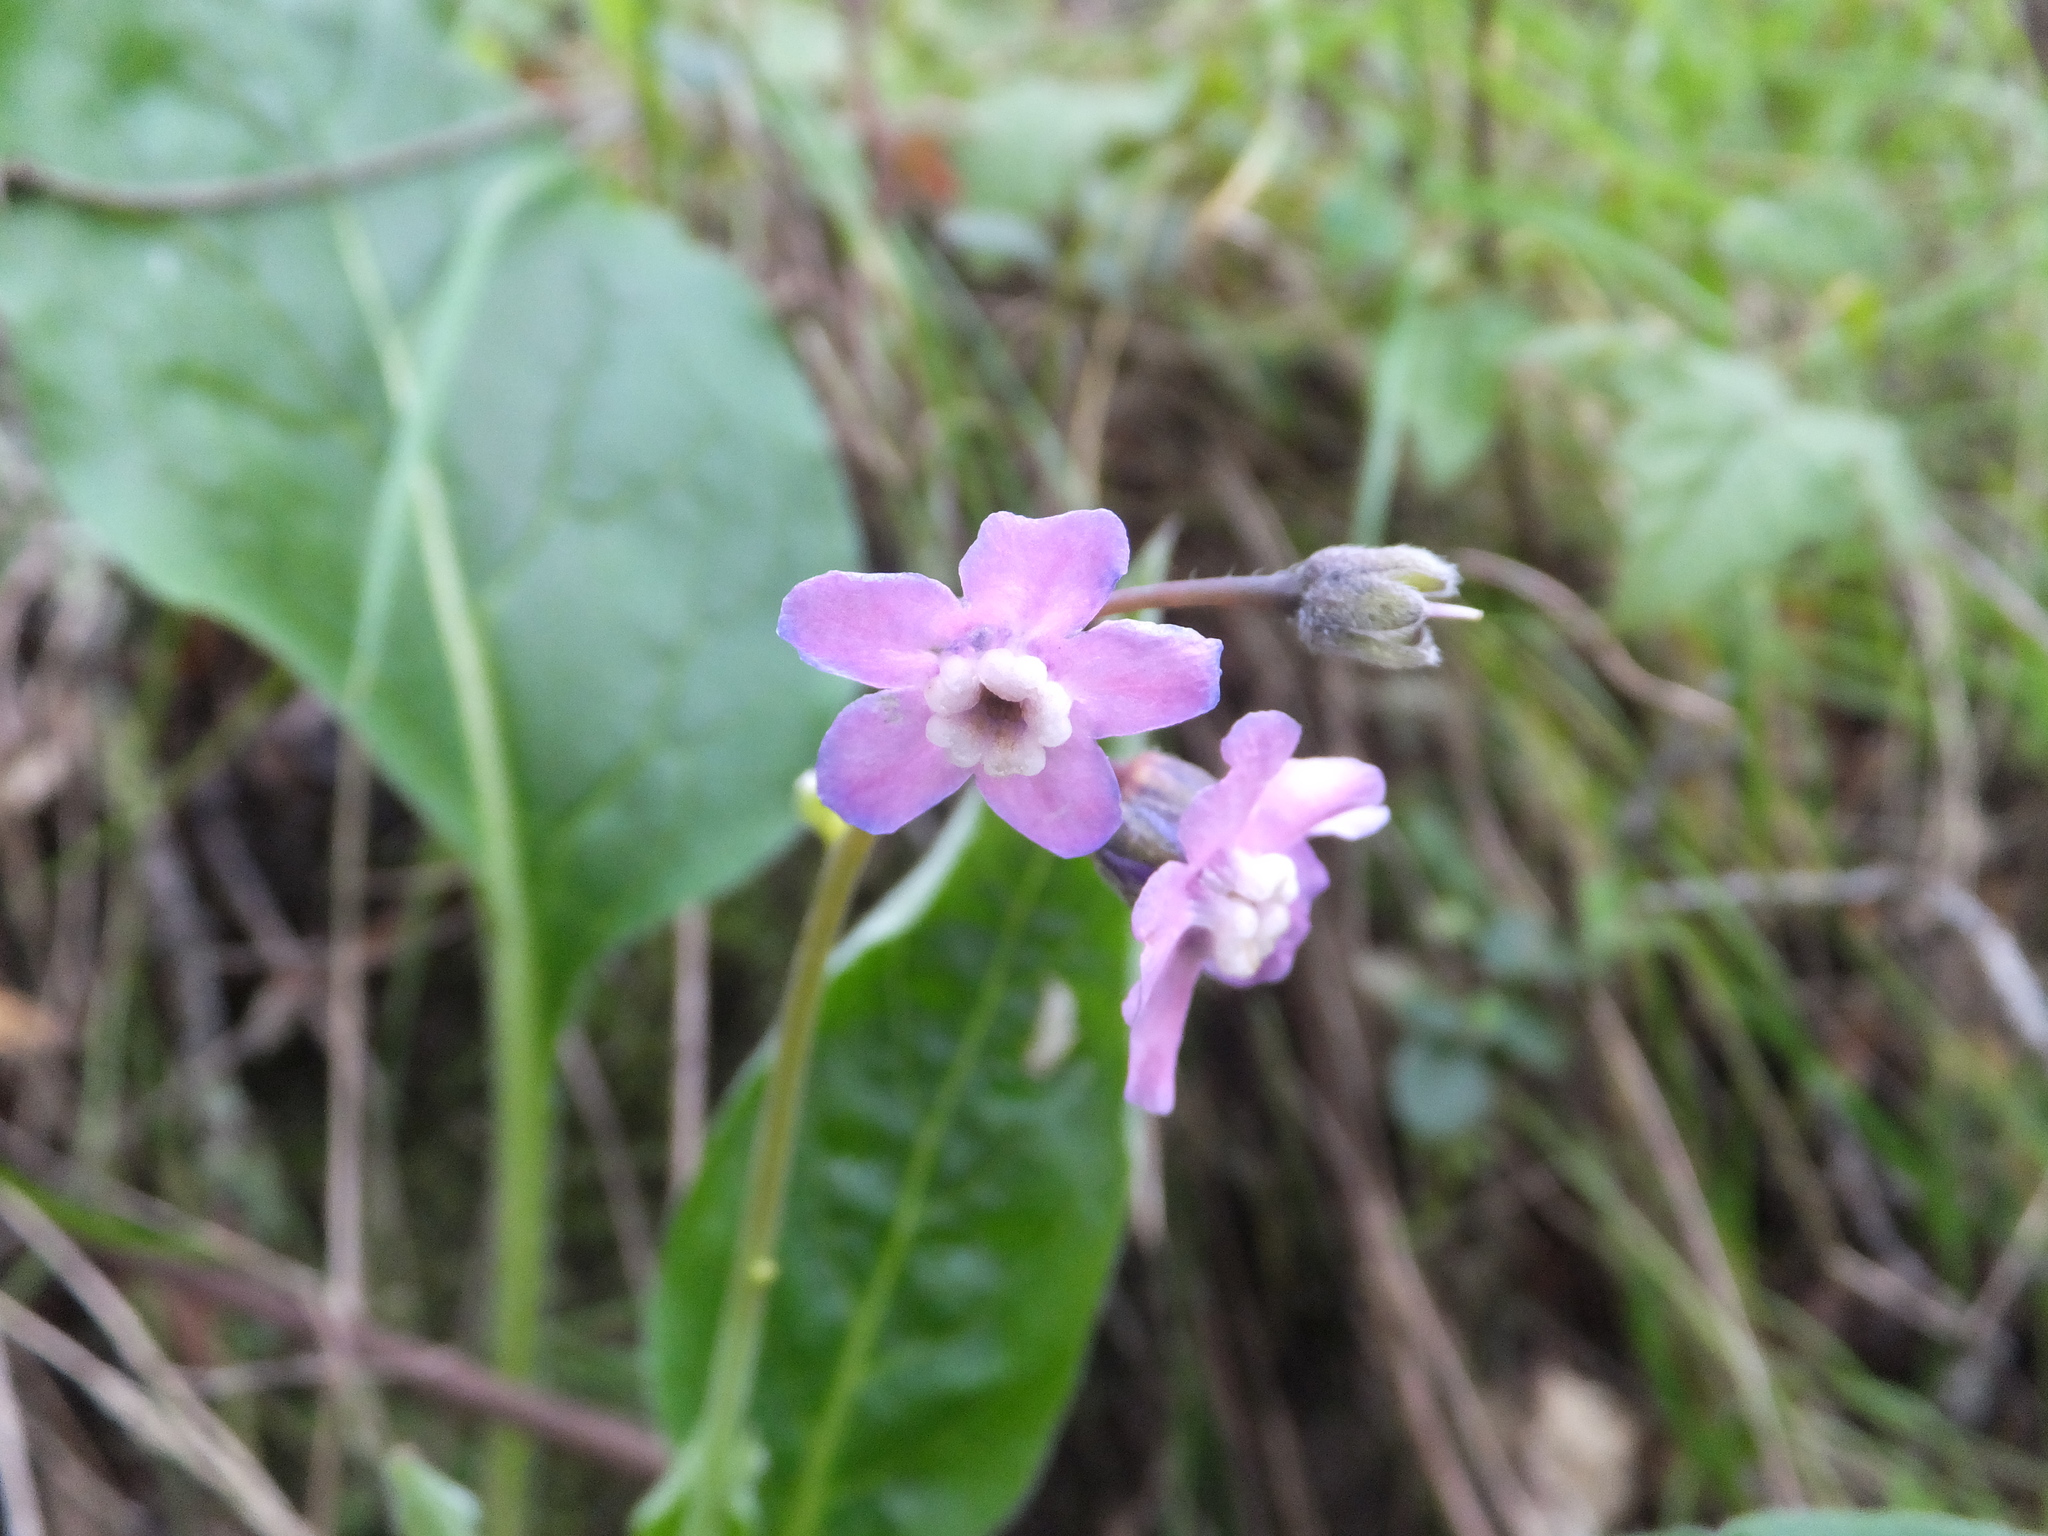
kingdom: Plantae
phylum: Tracheophyta
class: Magnoliopsida
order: Boraginales
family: Boraginaceae
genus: Adelinia
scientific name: Adelinia grande
